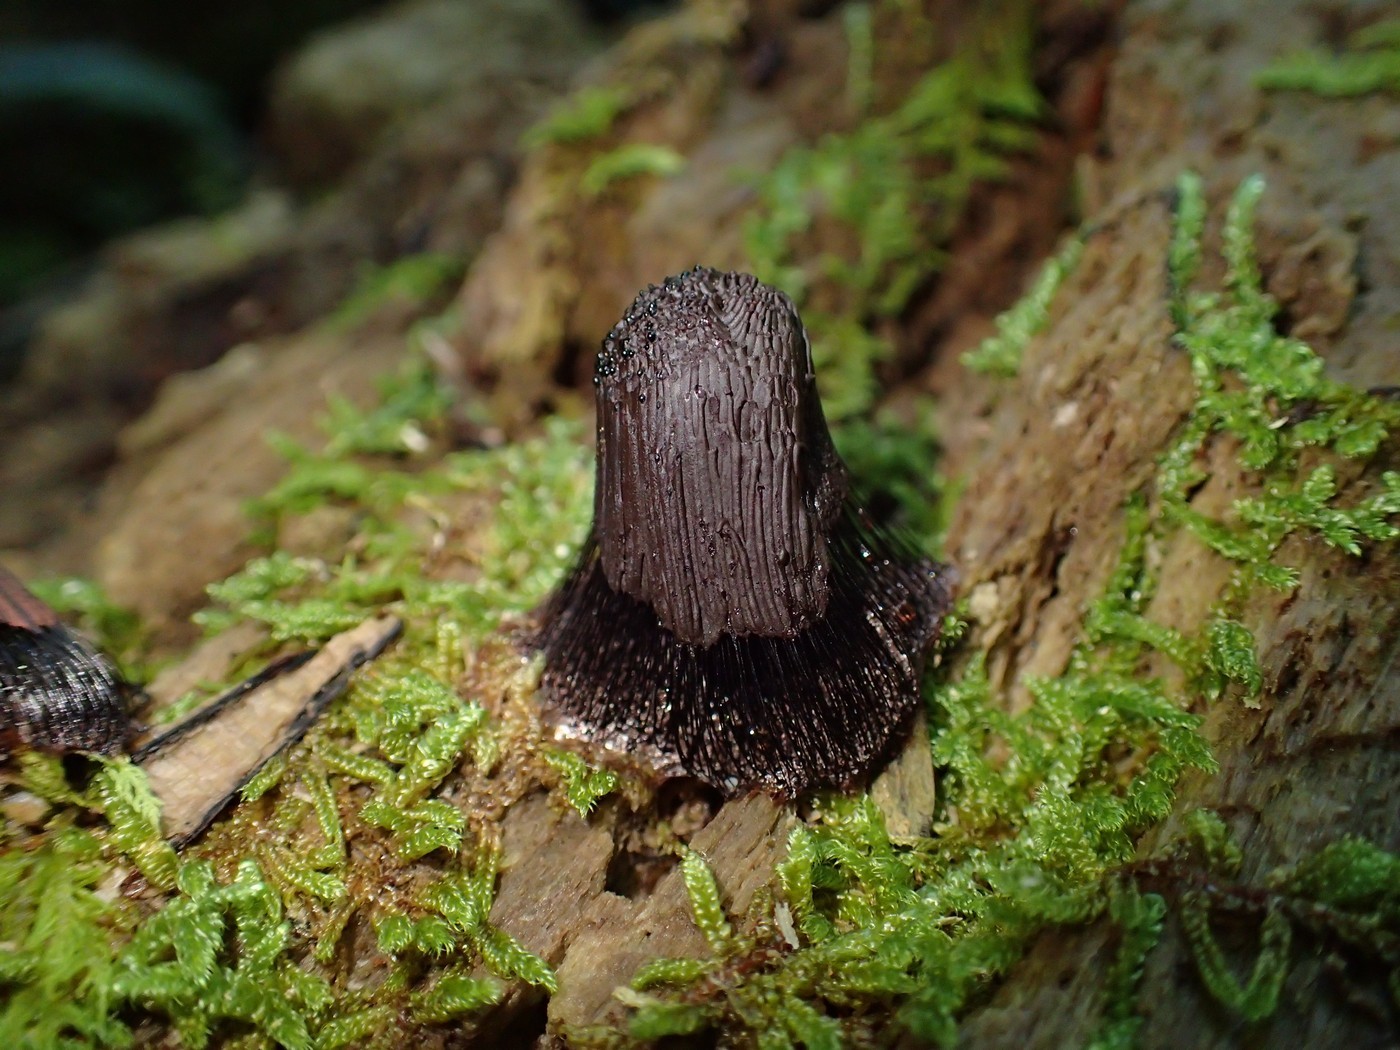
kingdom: Protozoa
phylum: Mycetozoa
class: Myxomycetes
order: Stemonitidales
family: Stemonitidaceae
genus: Stemonitis
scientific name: Stemonitis splendens
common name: Chocolate tube slime
